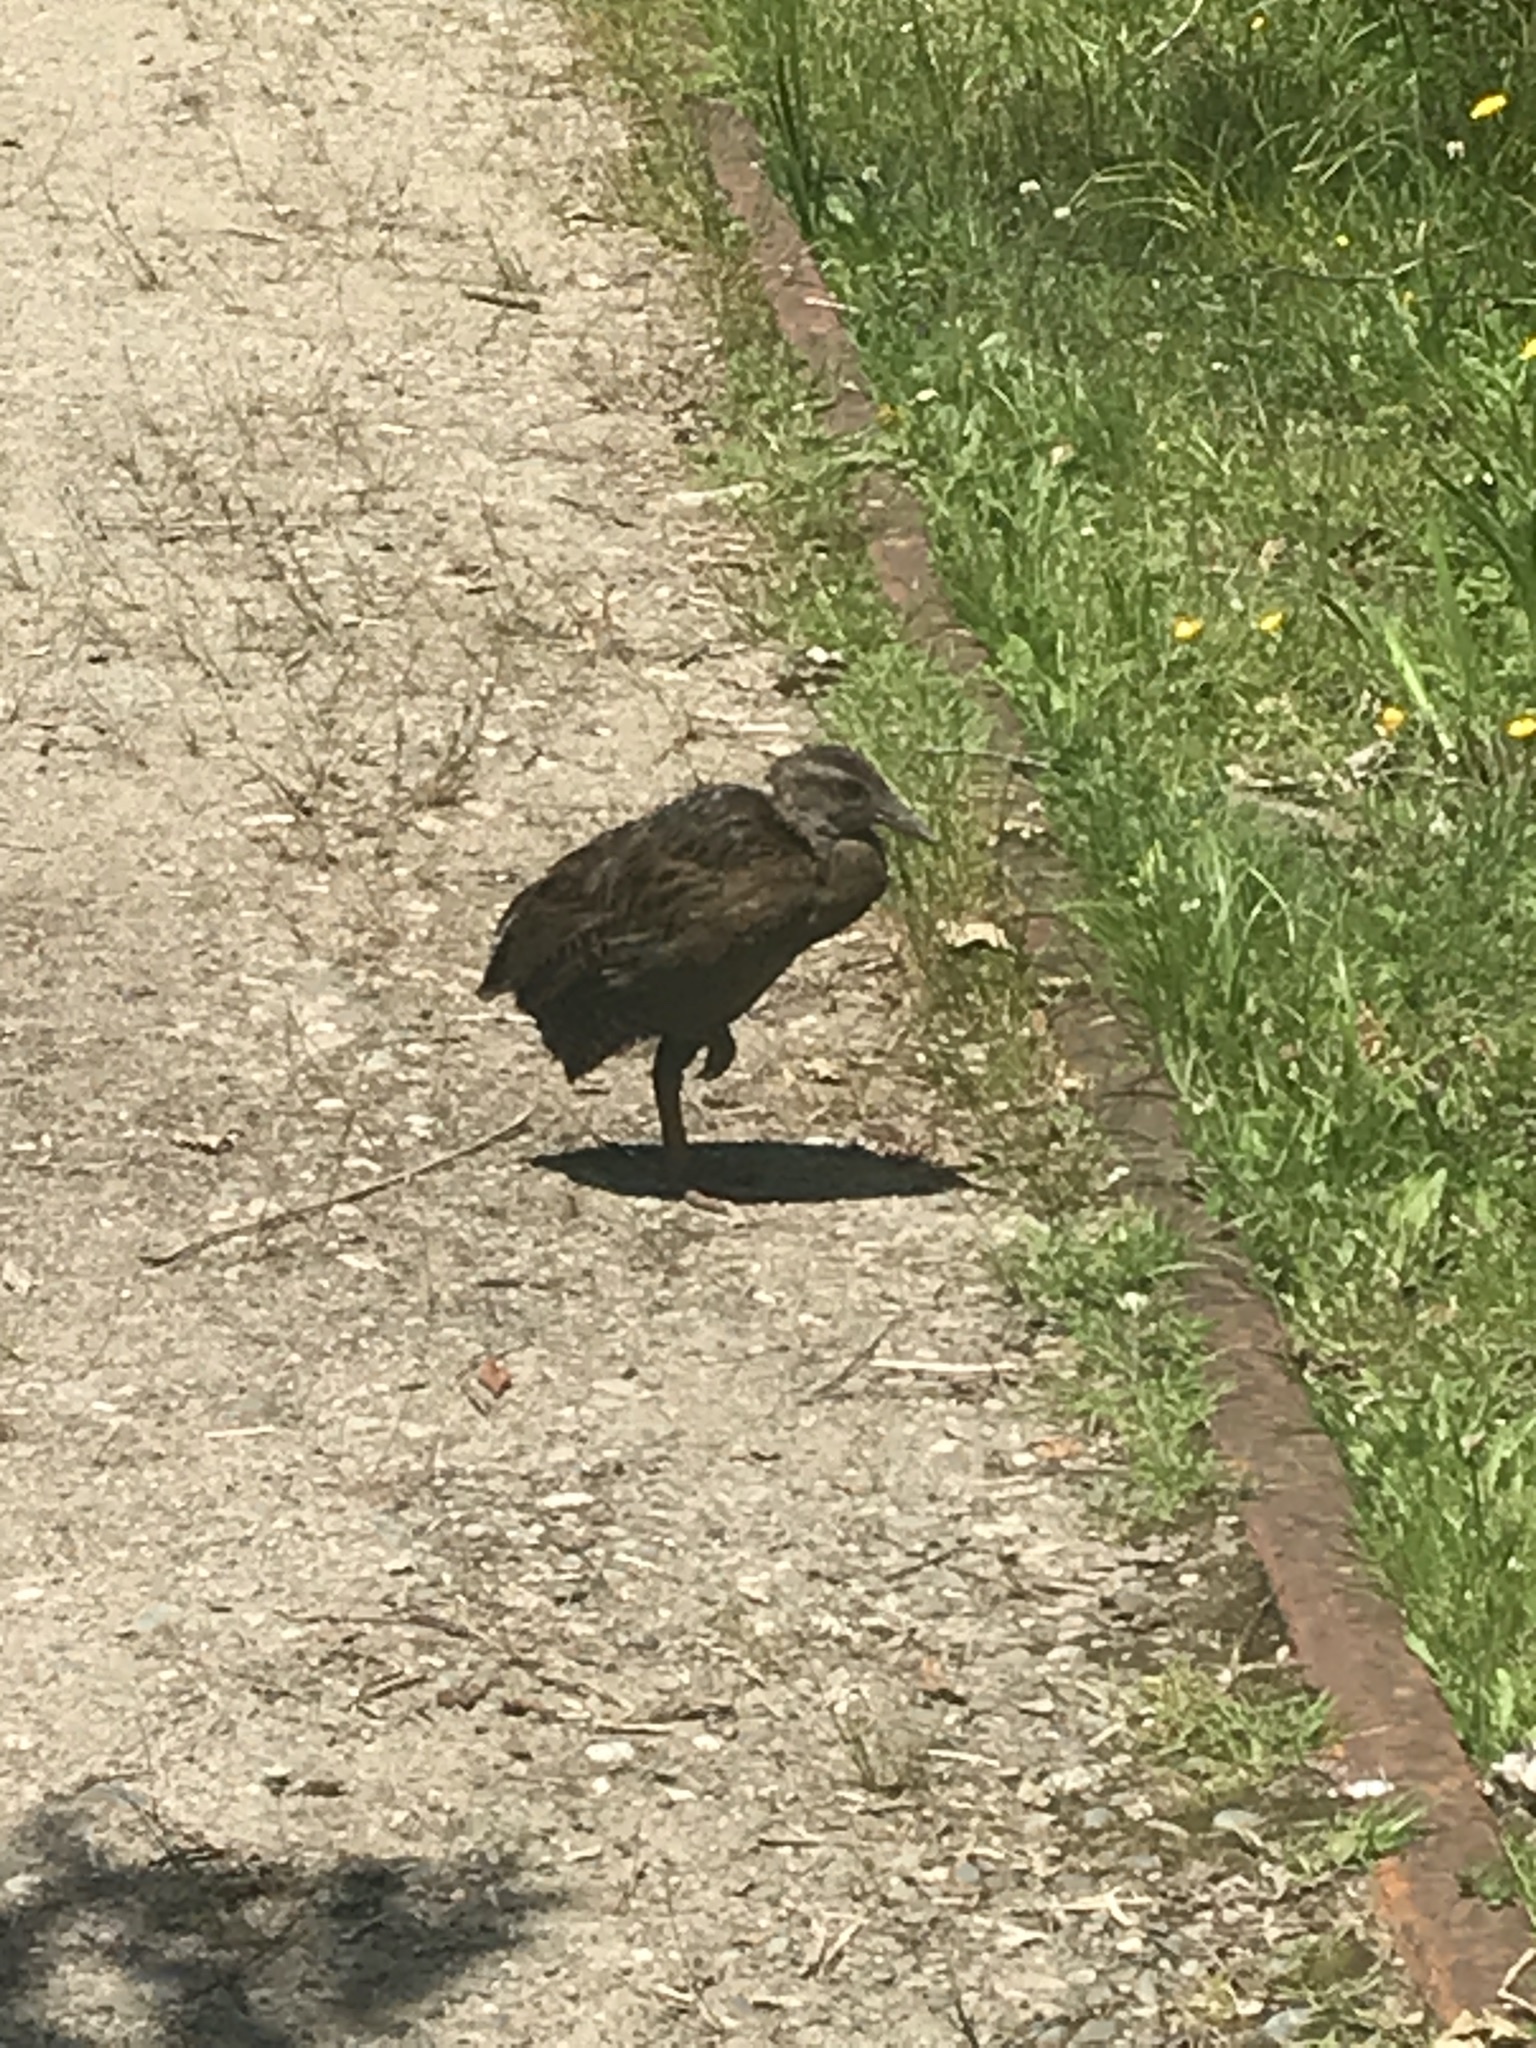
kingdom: Animalia
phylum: Chordata
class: Aves
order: Gruiformes
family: Rallidae
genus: Gallirallus
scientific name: Gallirallus australis
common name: Weka
